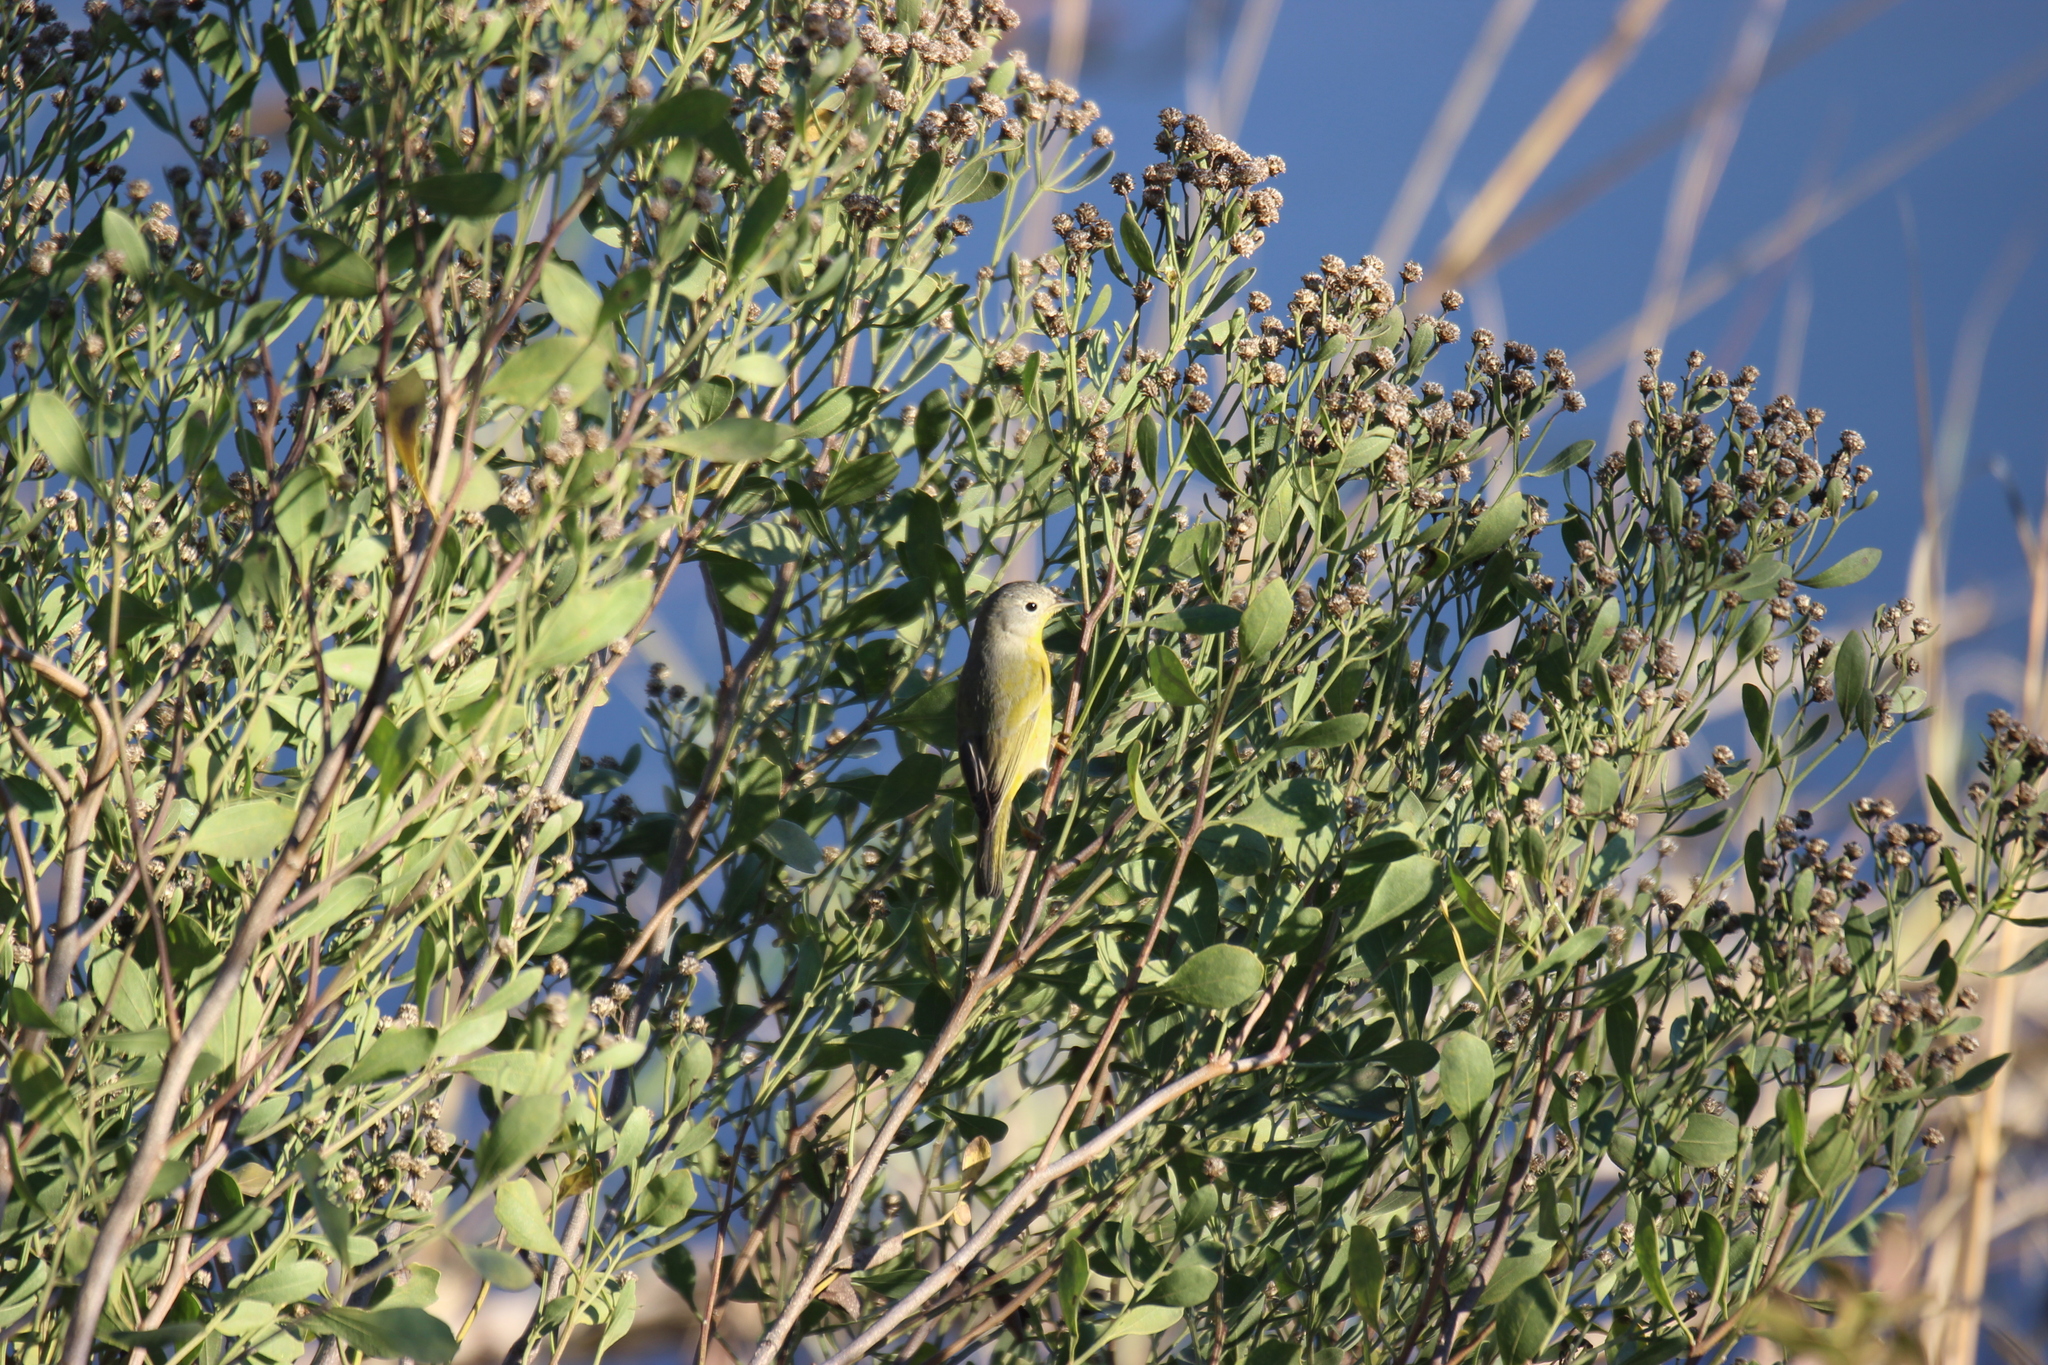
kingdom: Animalia
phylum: Chordata
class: Aves
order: Passeriformes
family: Parulidae
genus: Leiothlypis
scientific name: Leiothlypis ruficapilla
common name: Nashville warbler
